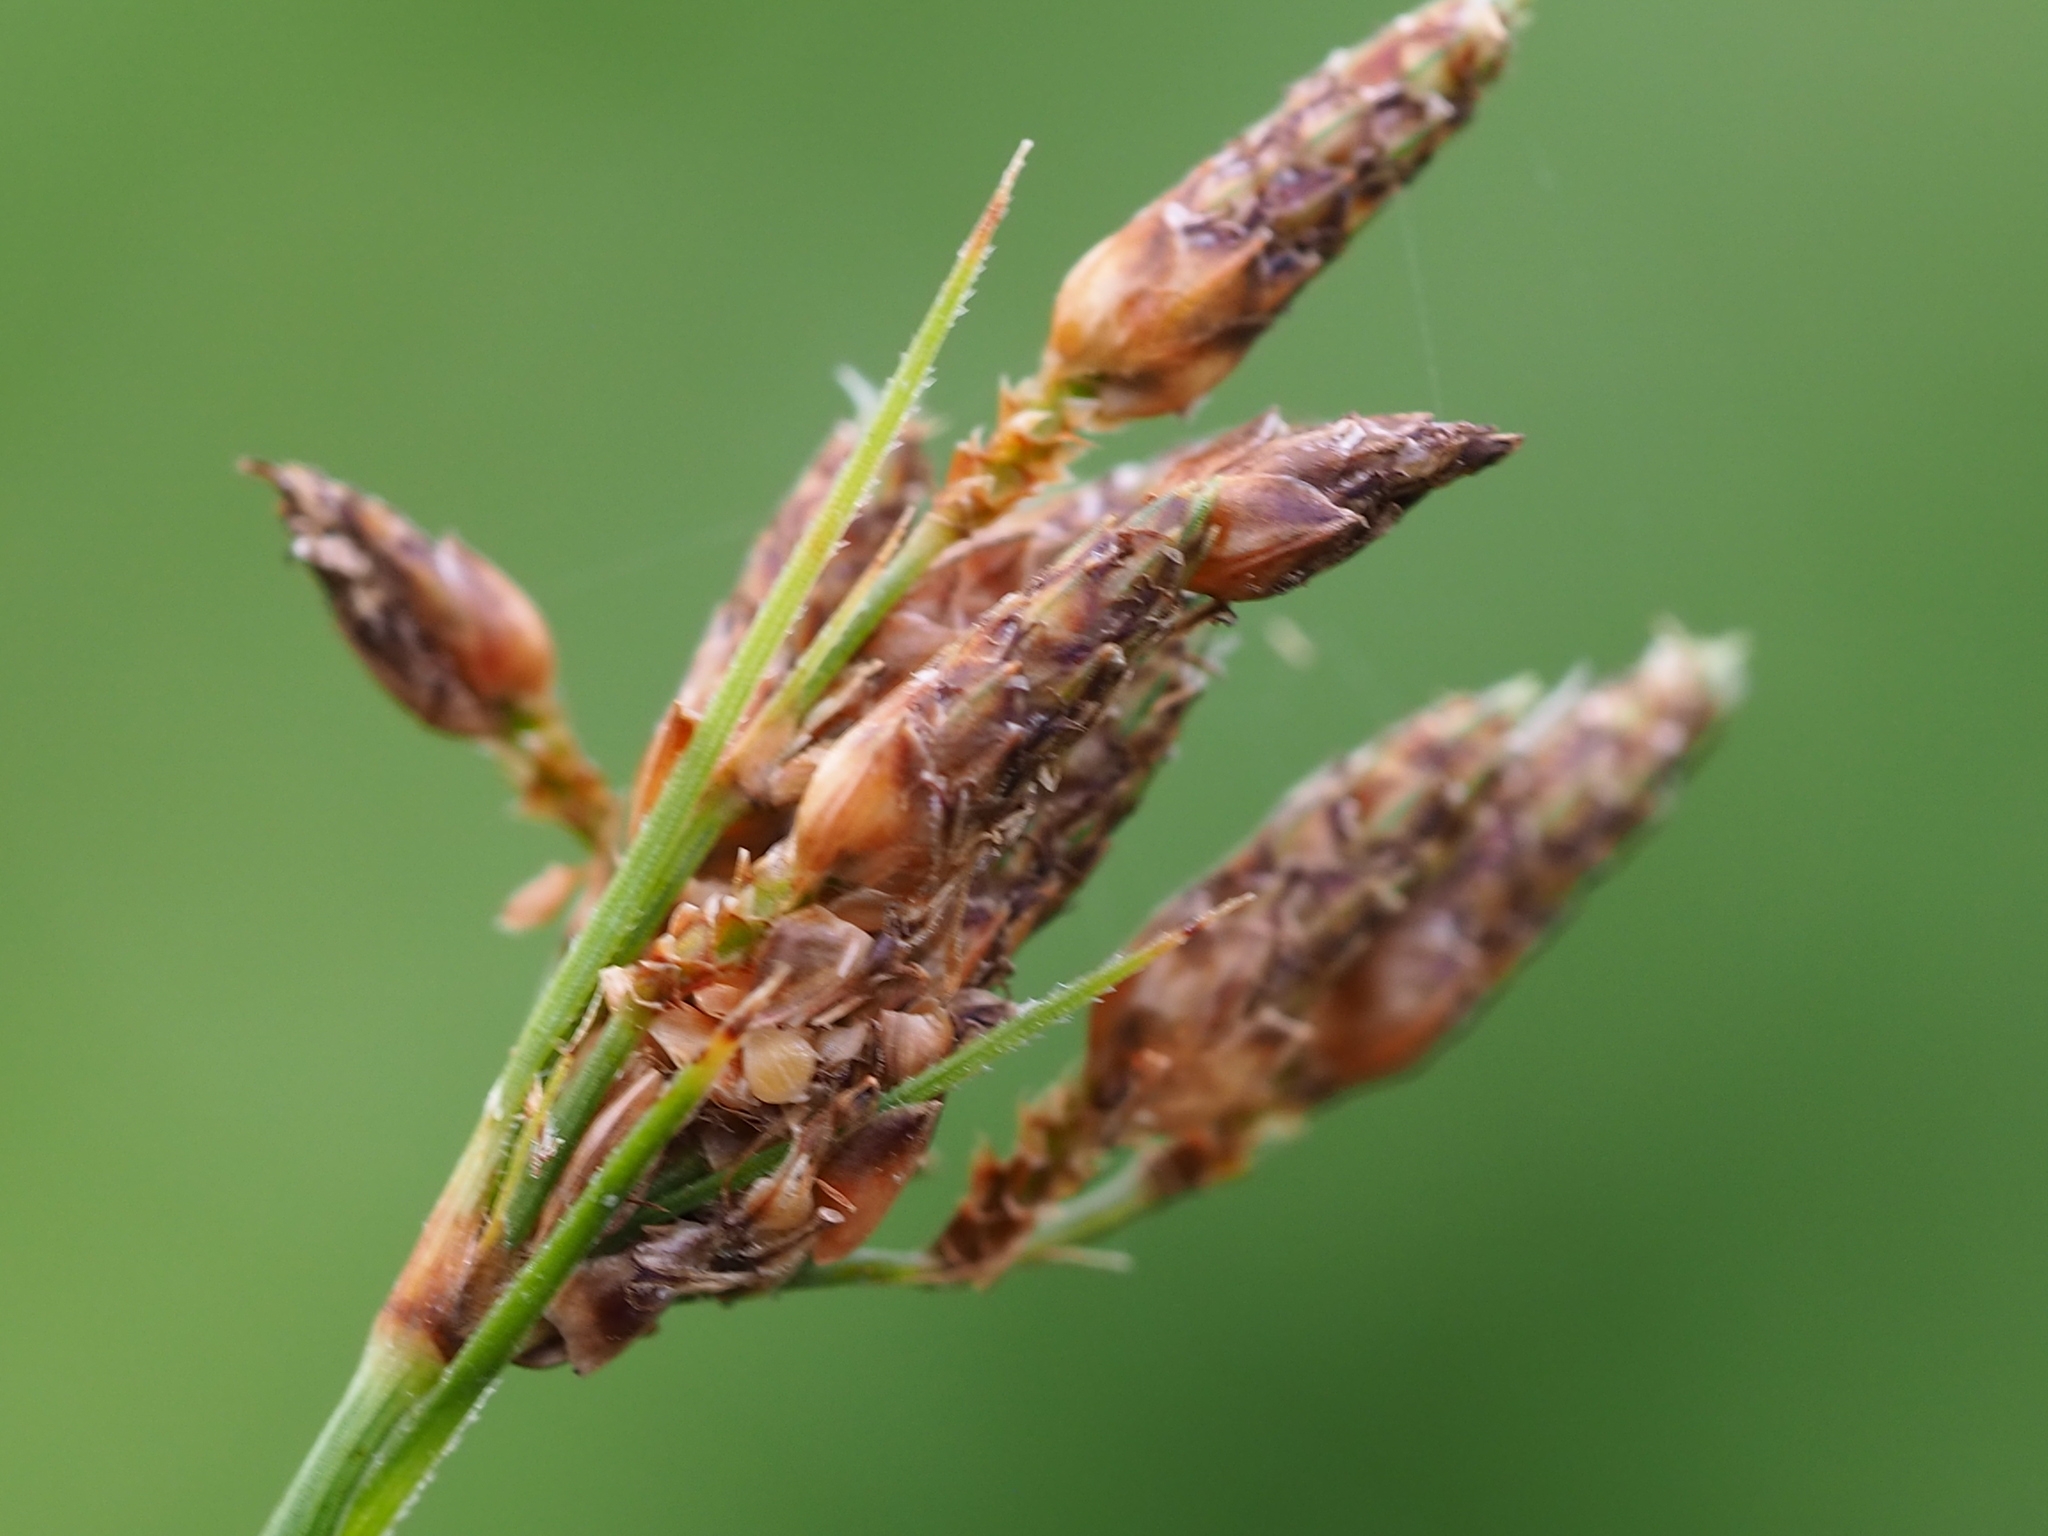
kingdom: Plantae
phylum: Tracheophyta
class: Liliopsida
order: Poales
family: Cyperaceae
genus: Fimbristylis
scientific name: Fimbristylis dichotoma
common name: Forked fimbry
